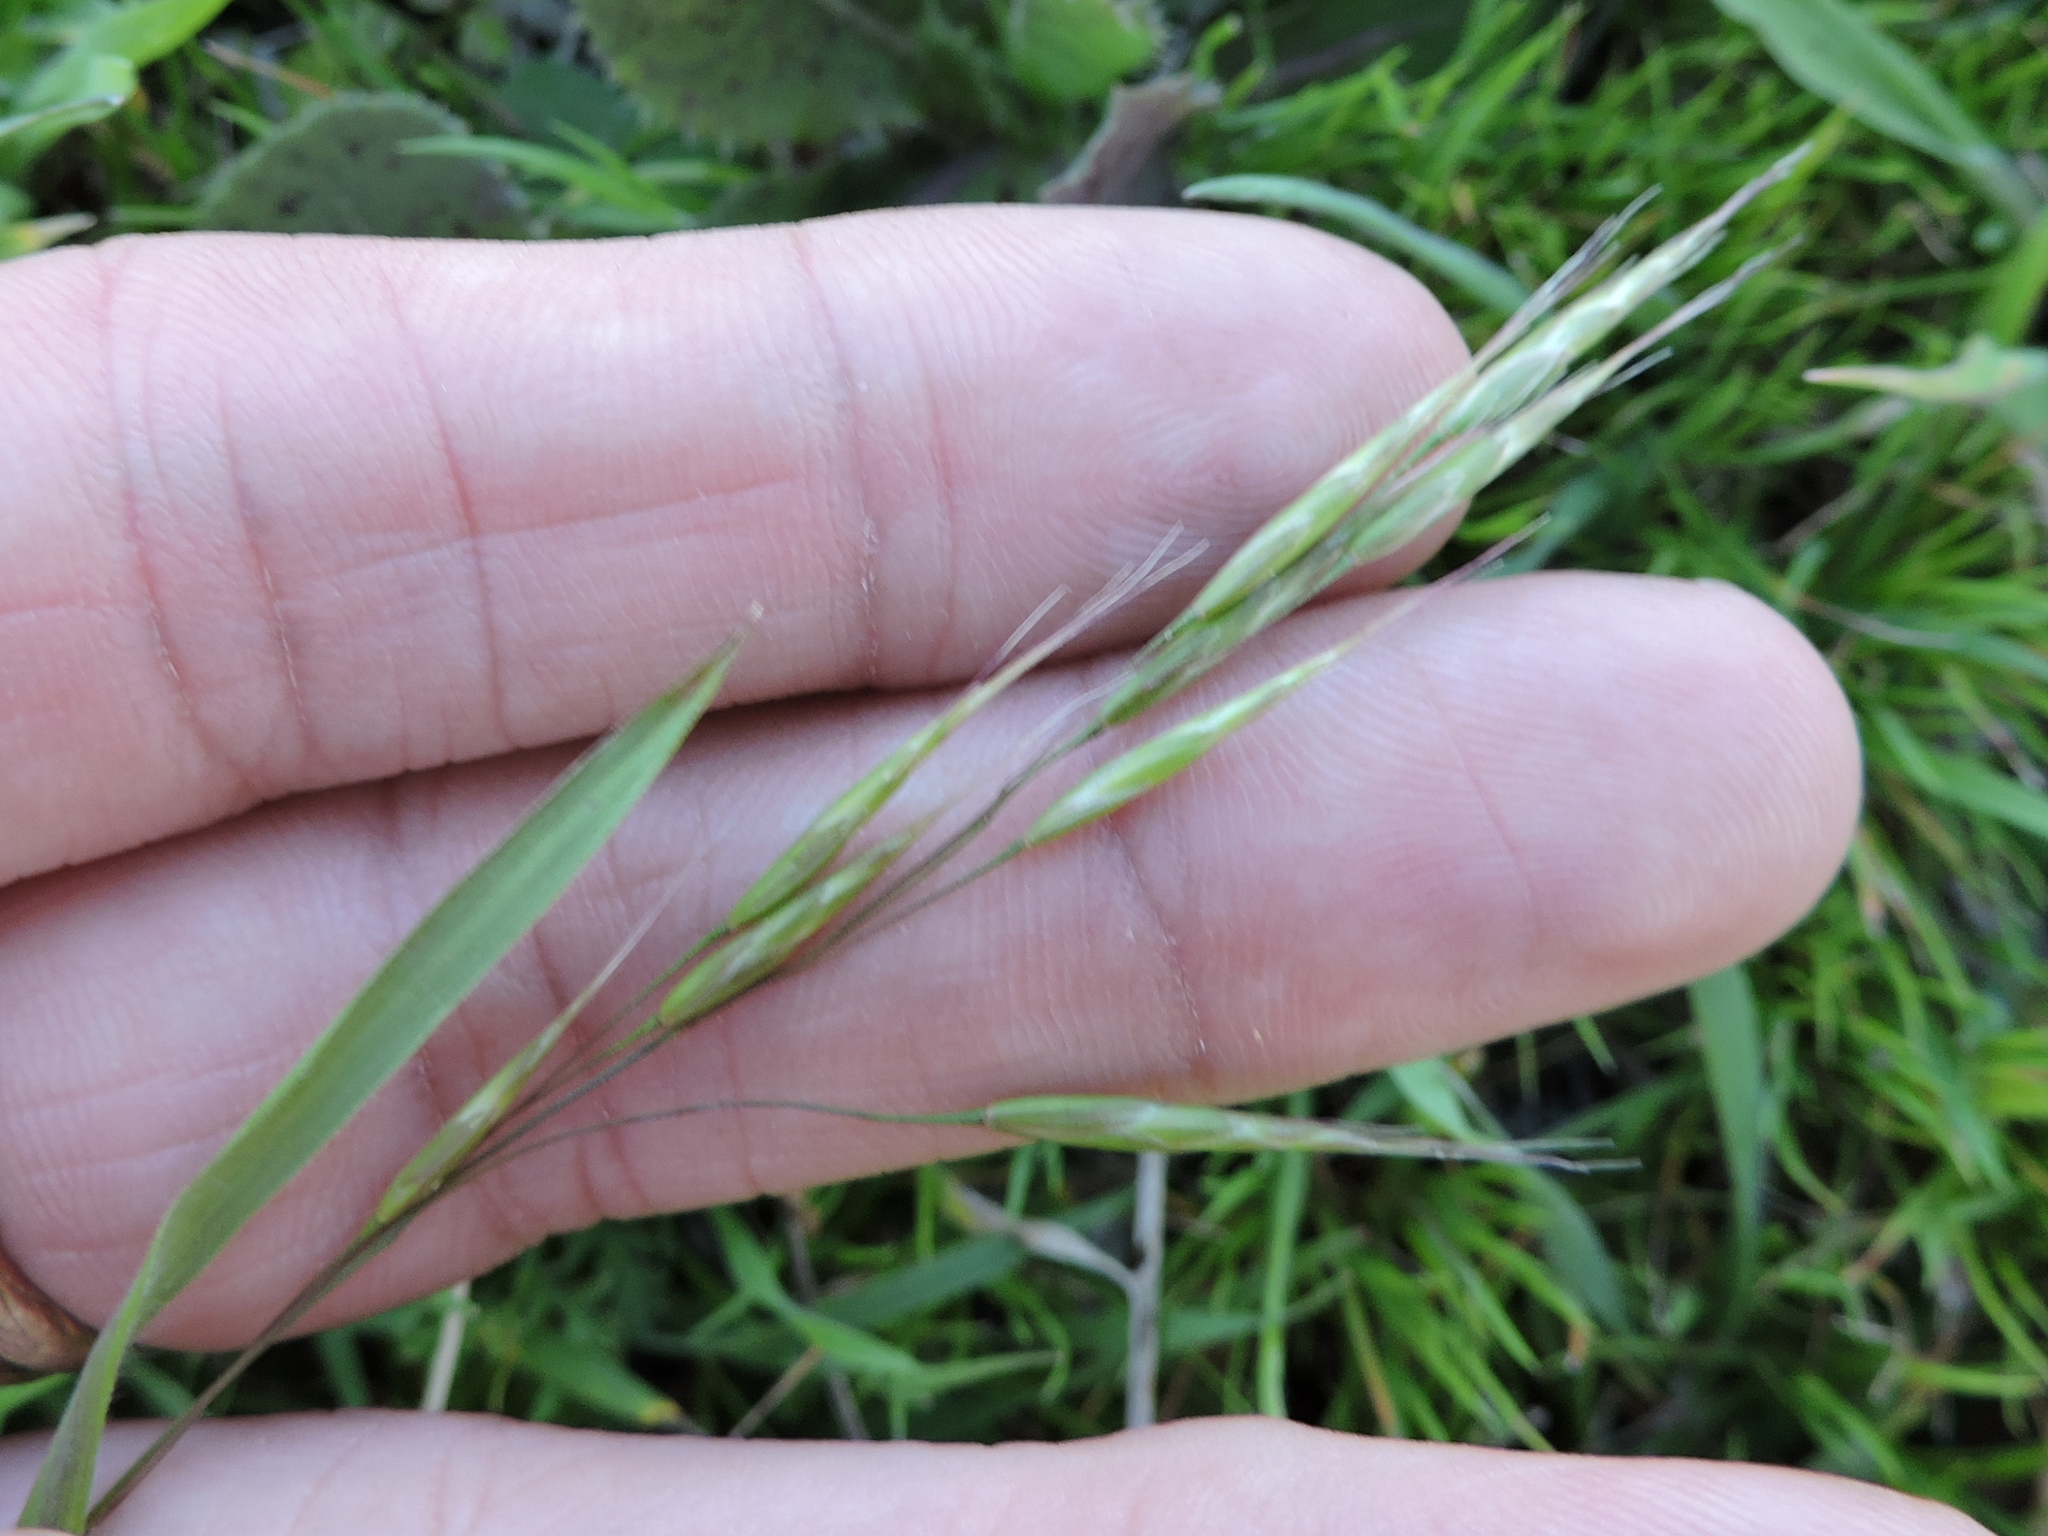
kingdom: Plantae
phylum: Tracheophyta
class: Liliopsida
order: Poales
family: Poaceae
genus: Bromus
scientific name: Bromus japonicus
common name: Japanese brome
